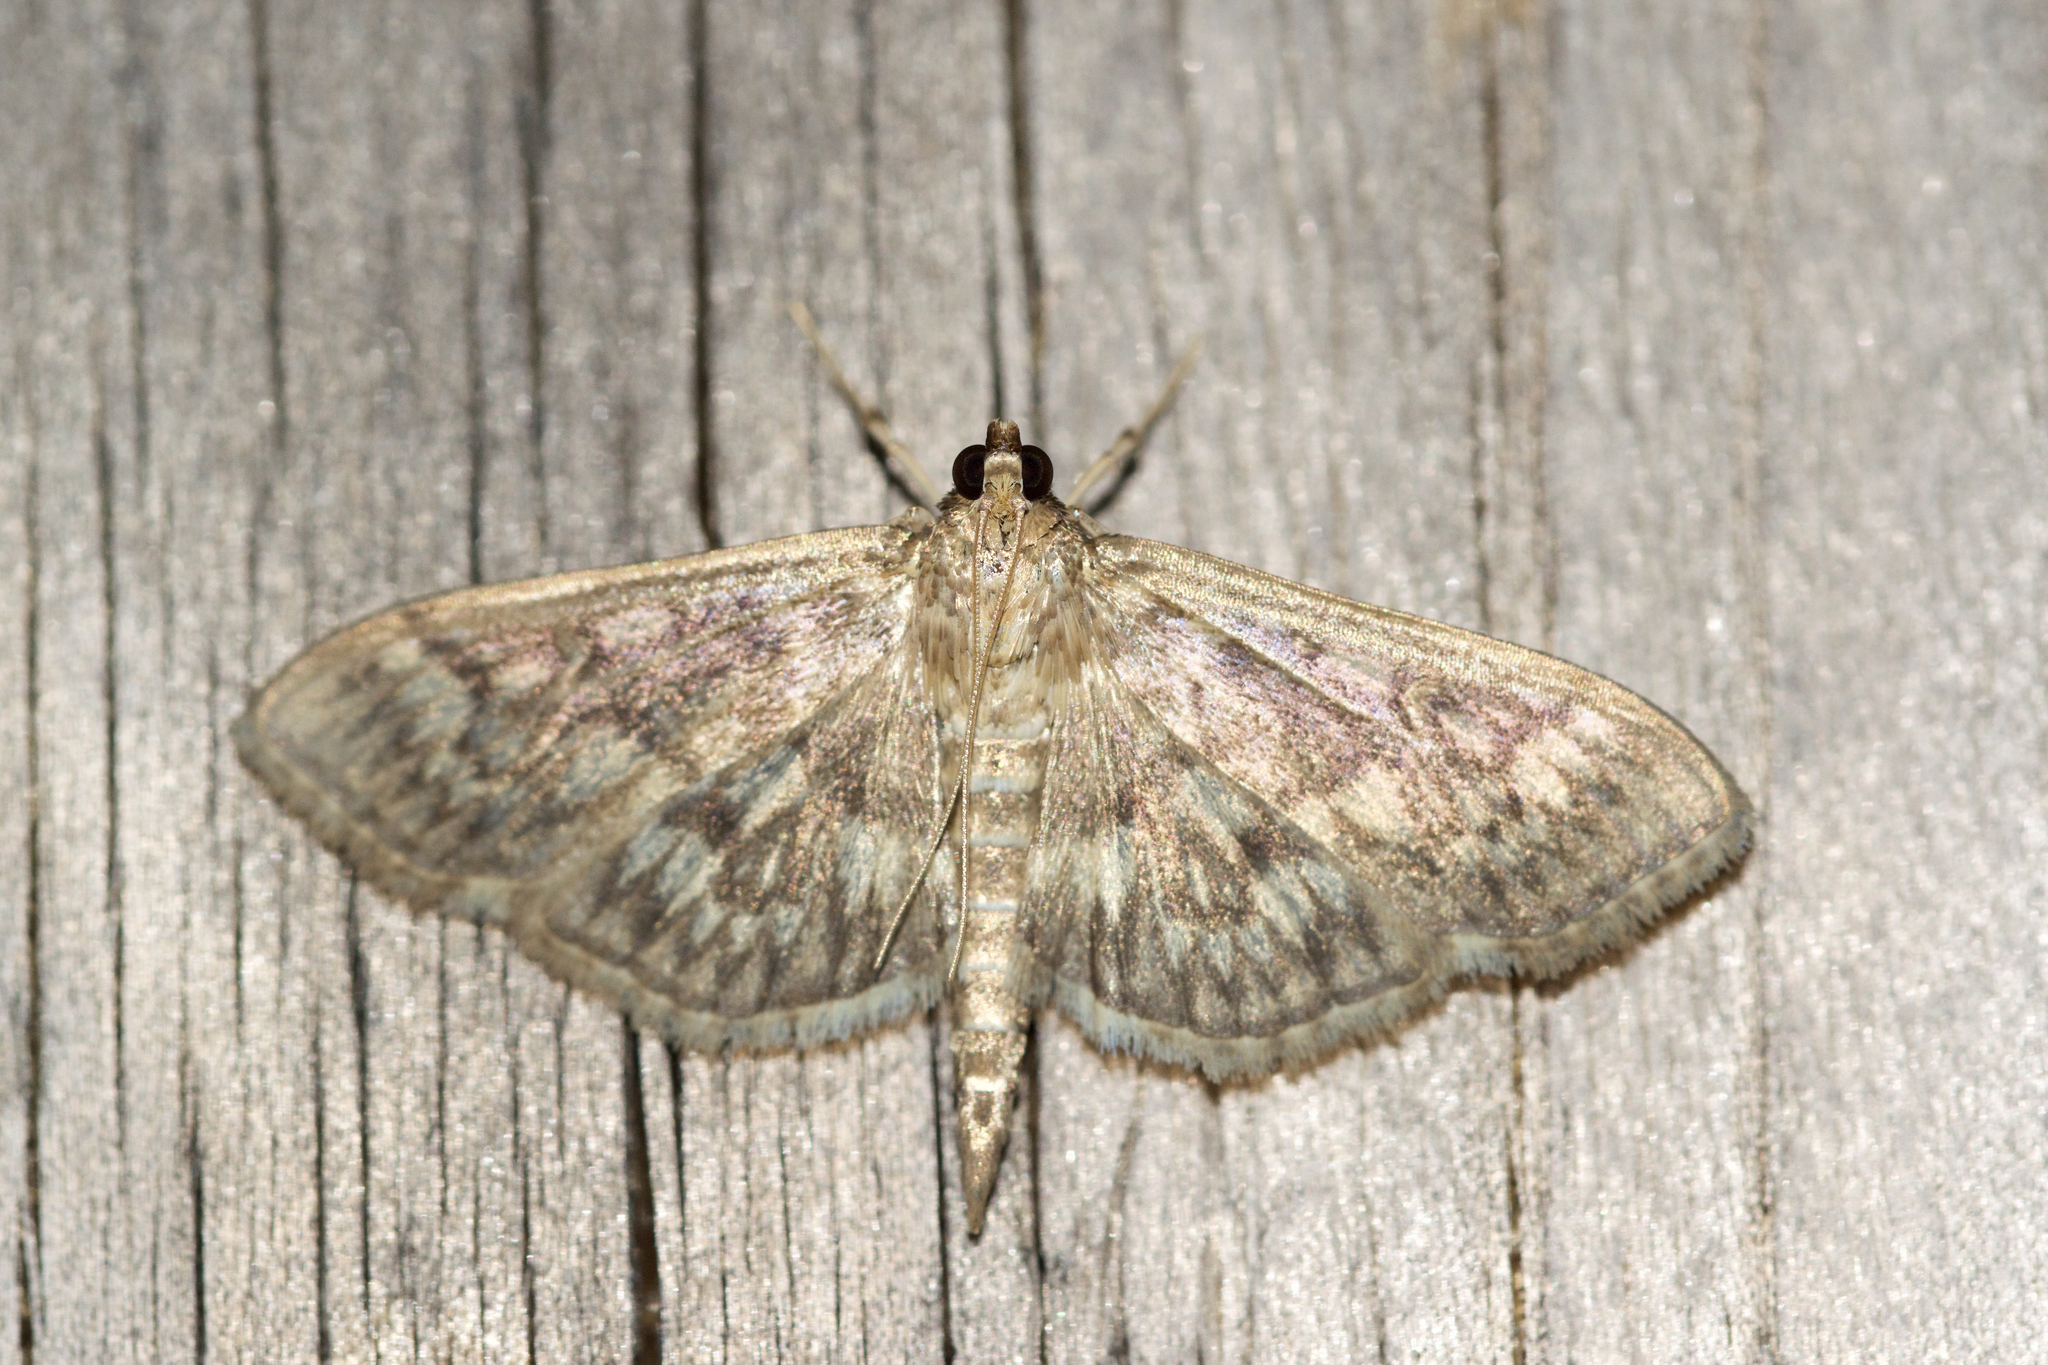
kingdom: Animalia
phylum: Arthropoda
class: Insecta
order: Lepidoptera
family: Crambidae
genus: Herpetogramma
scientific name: Herpetogramma pertextalis
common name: Bold-feathered grass moth
